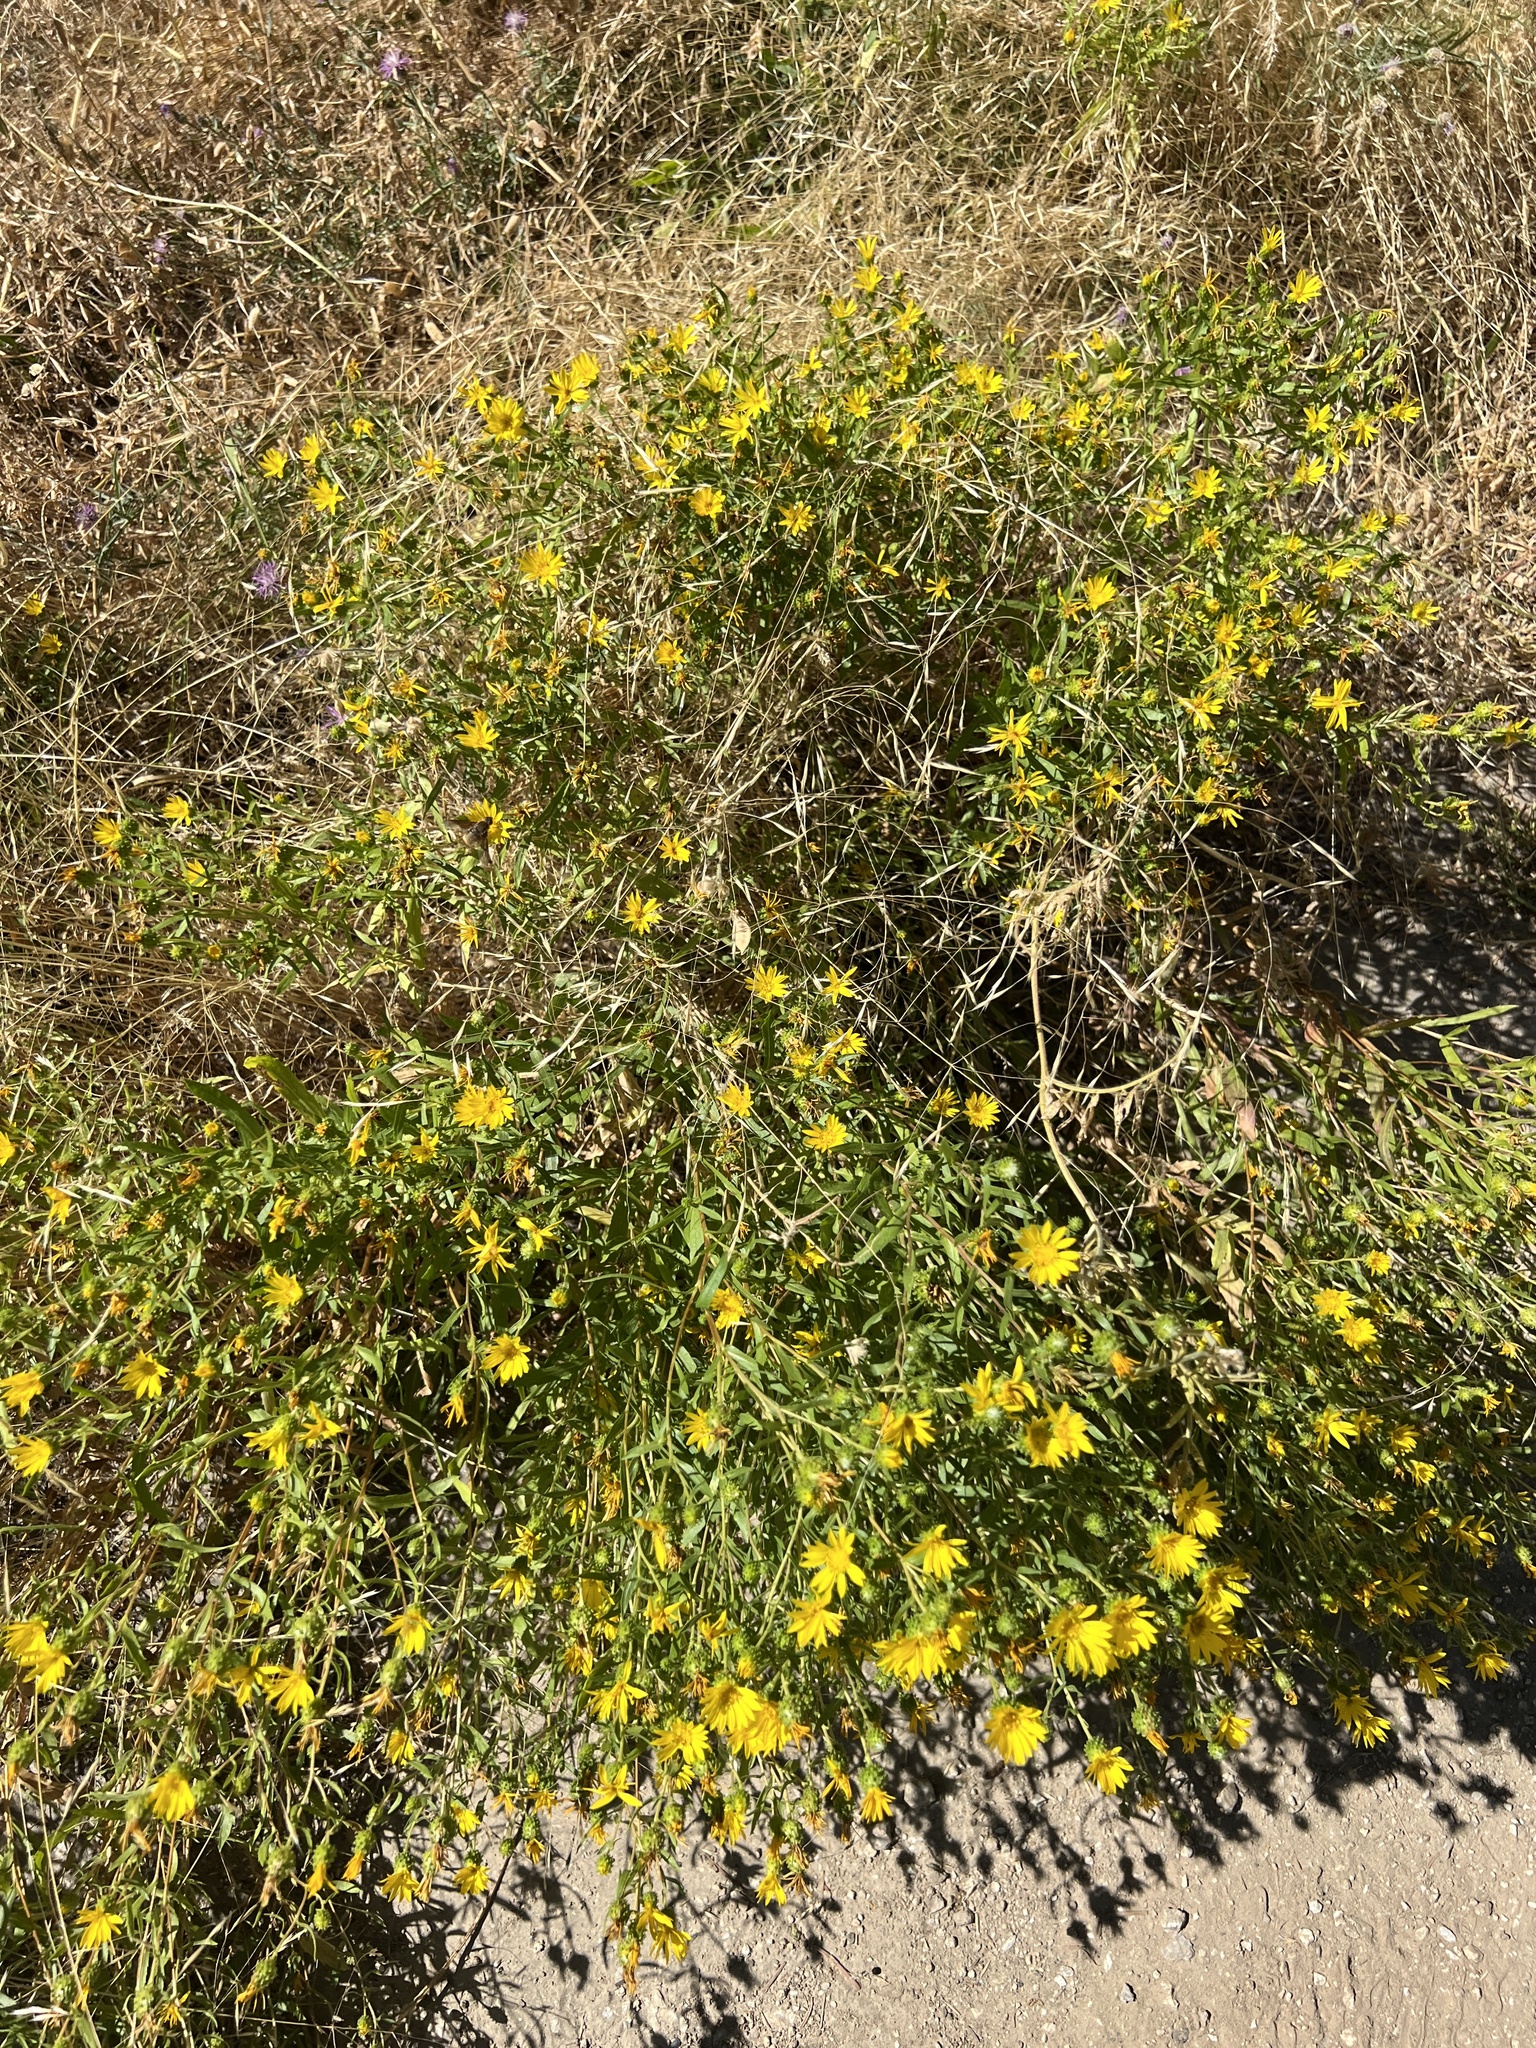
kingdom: Plantae
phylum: Tracheophyta
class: Magnoliopsida
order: Asterales
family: Asteraceae
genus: Grindelia
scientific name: Grindelia squarrosa
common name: Curly-cup gumweed
